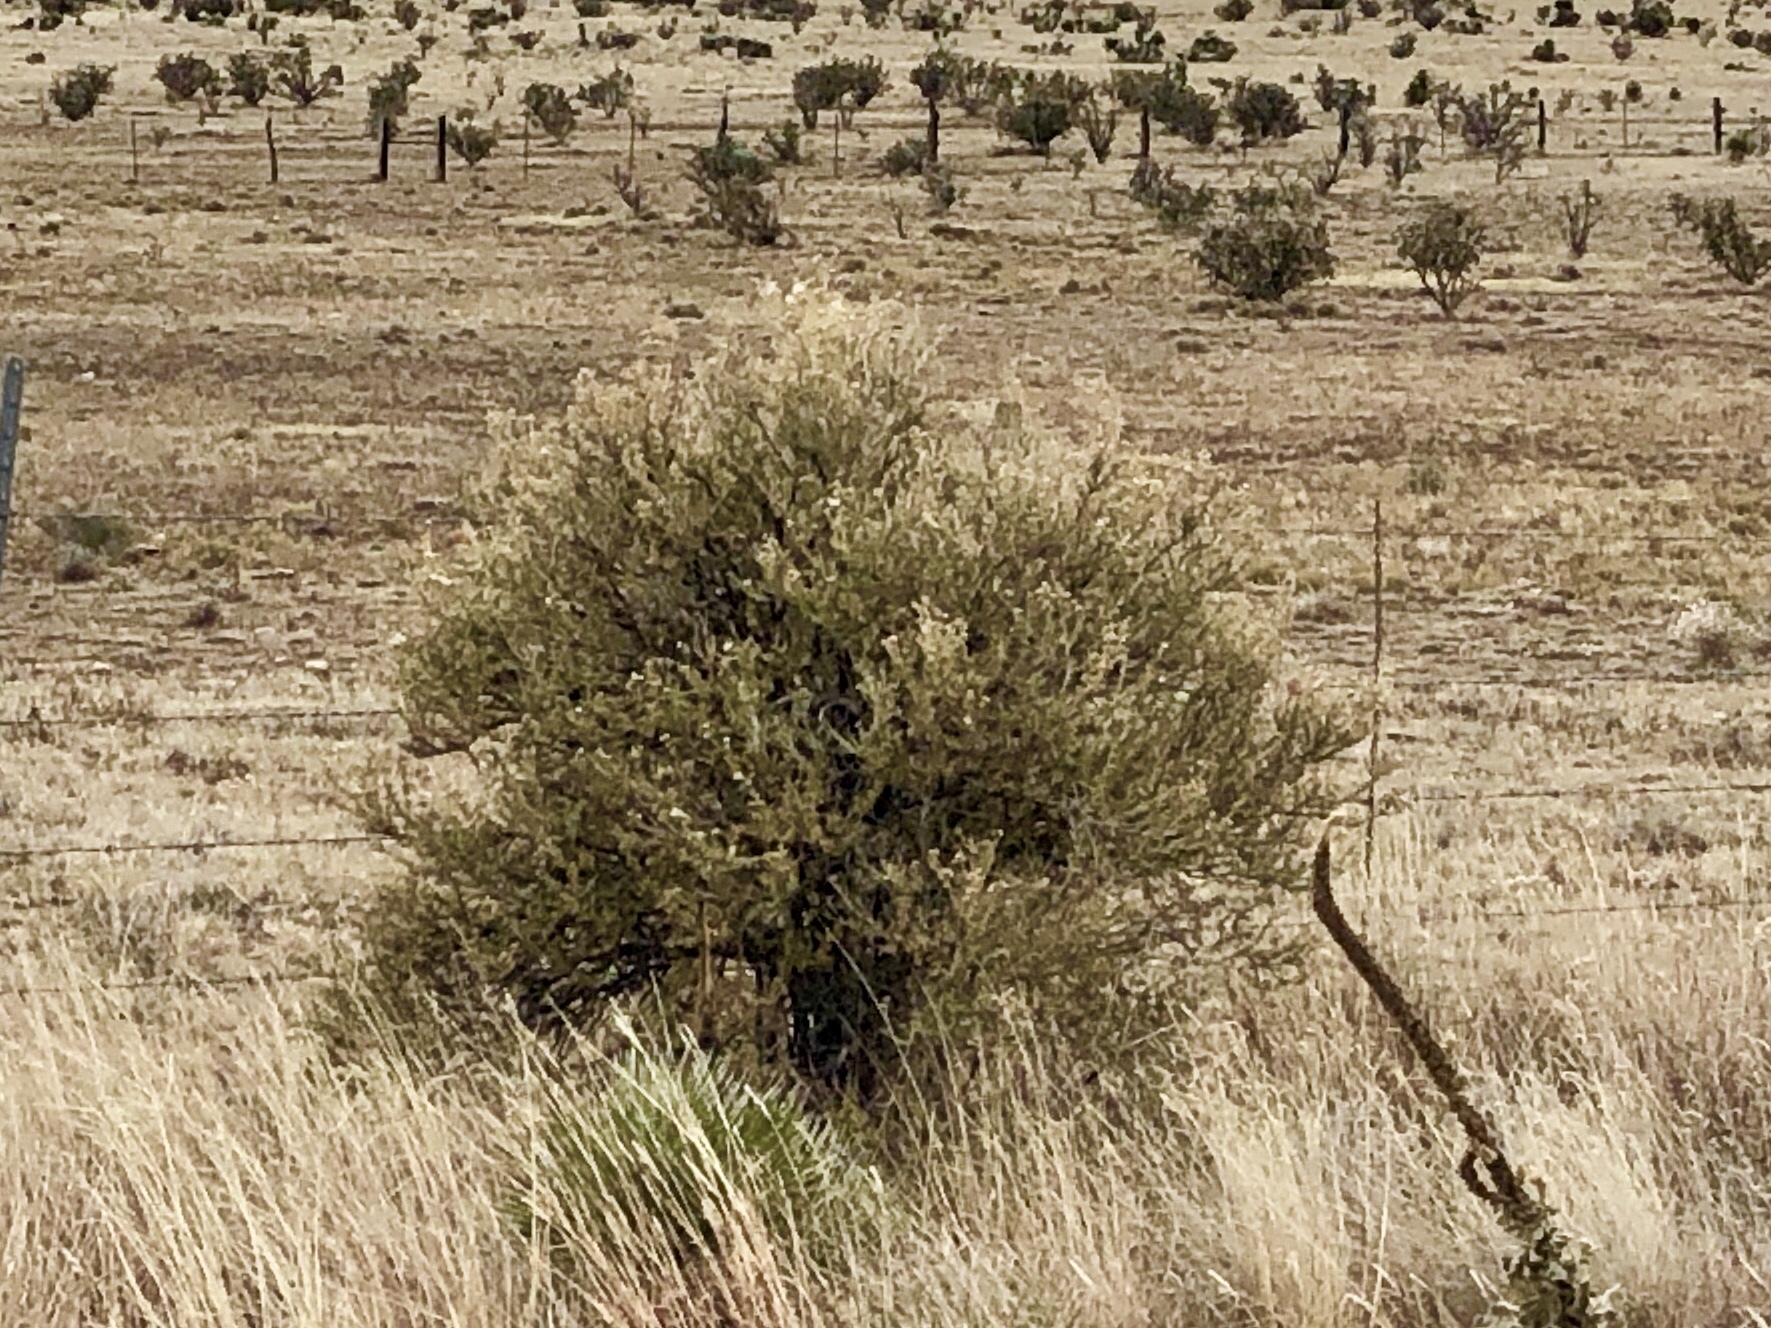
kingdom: Plantae
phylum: Tracheophyta
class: Magnoliopsida
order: Rosales
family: Rosaceae
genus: Fallugia
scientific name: Fallugia paradoxa
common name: Apache-plume
